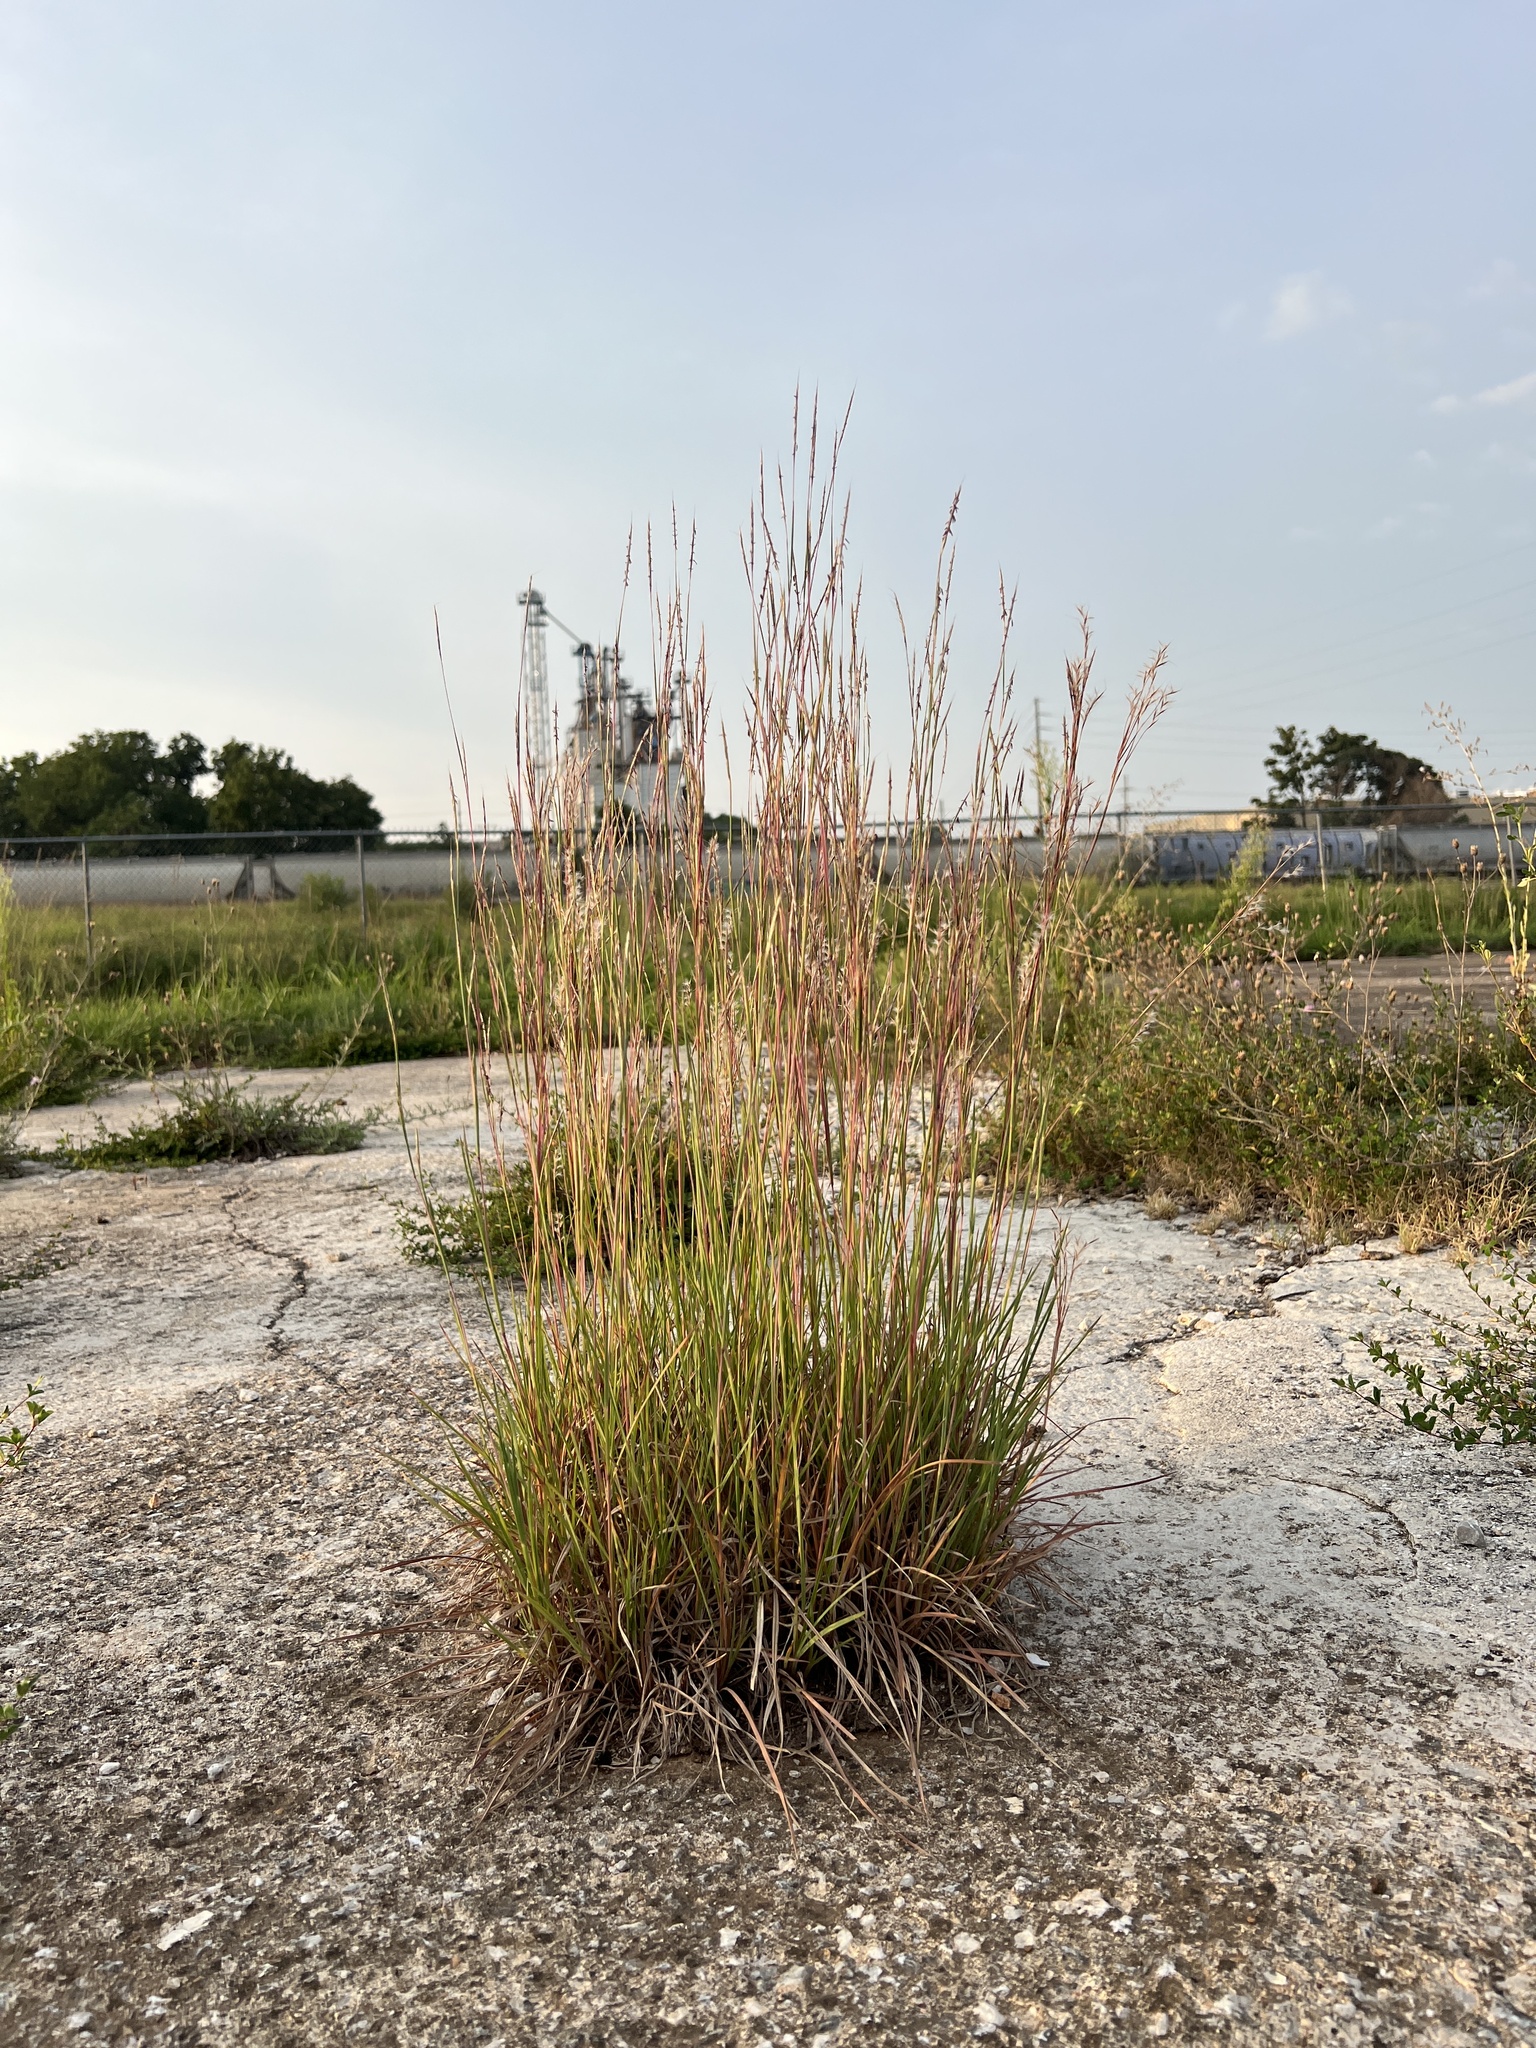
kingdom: Plantae
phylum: Tracheophyta
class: Liliopsida
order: Poales
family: Poaceae
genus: Schizachyrium
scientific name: Schizachyrium scoparium
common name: Little bluestem
